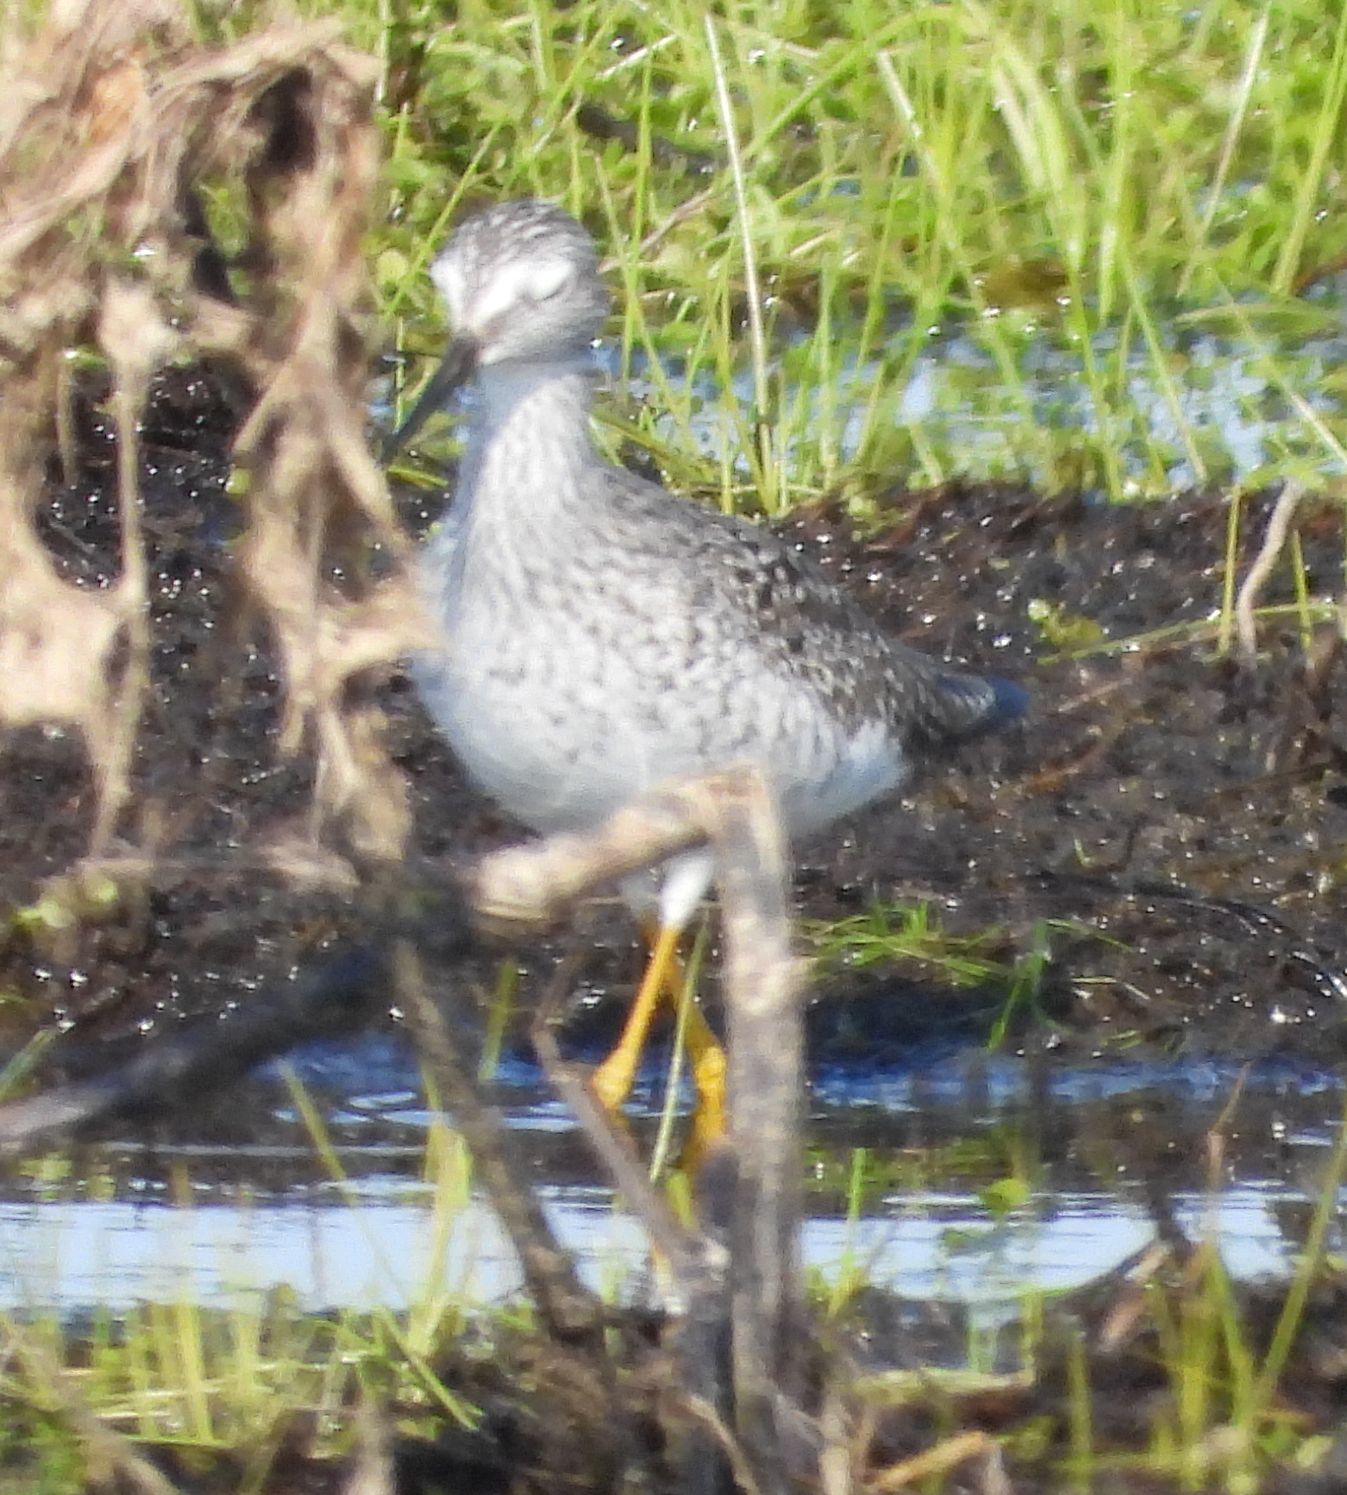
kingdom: Animalia
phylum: Chordata
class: Aves
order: Charadriiformes
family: Scolopacidae
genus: Tringa
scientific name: Tringa flavipes
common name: Lesser yellowlegs
